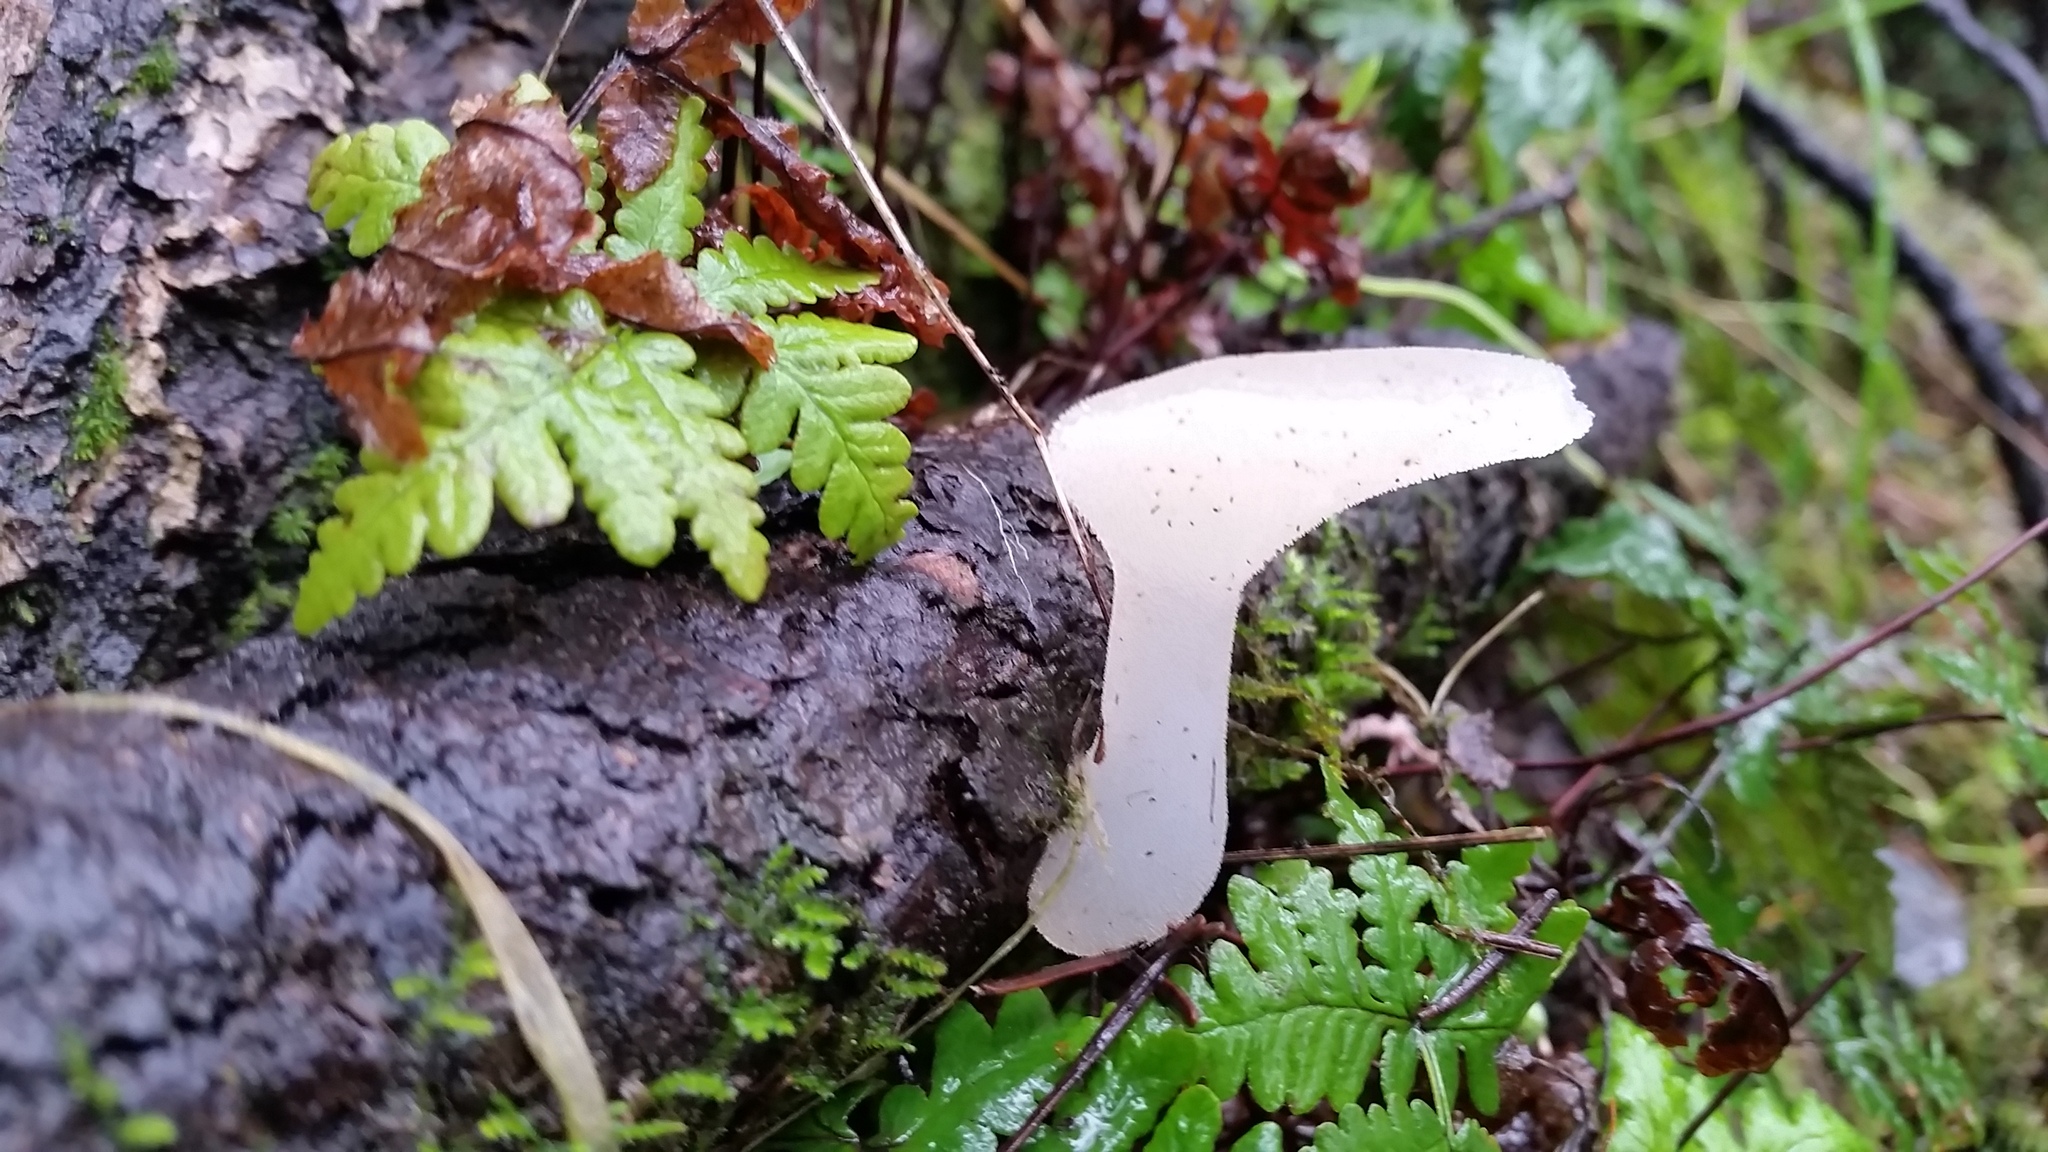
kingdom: Fungi
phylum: Basidiomycota
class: Agaricomycetes
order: Auriculariales
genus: Pseudohydnum
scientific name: Pseudohydnum gelatinosum
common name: Jelly tongue
